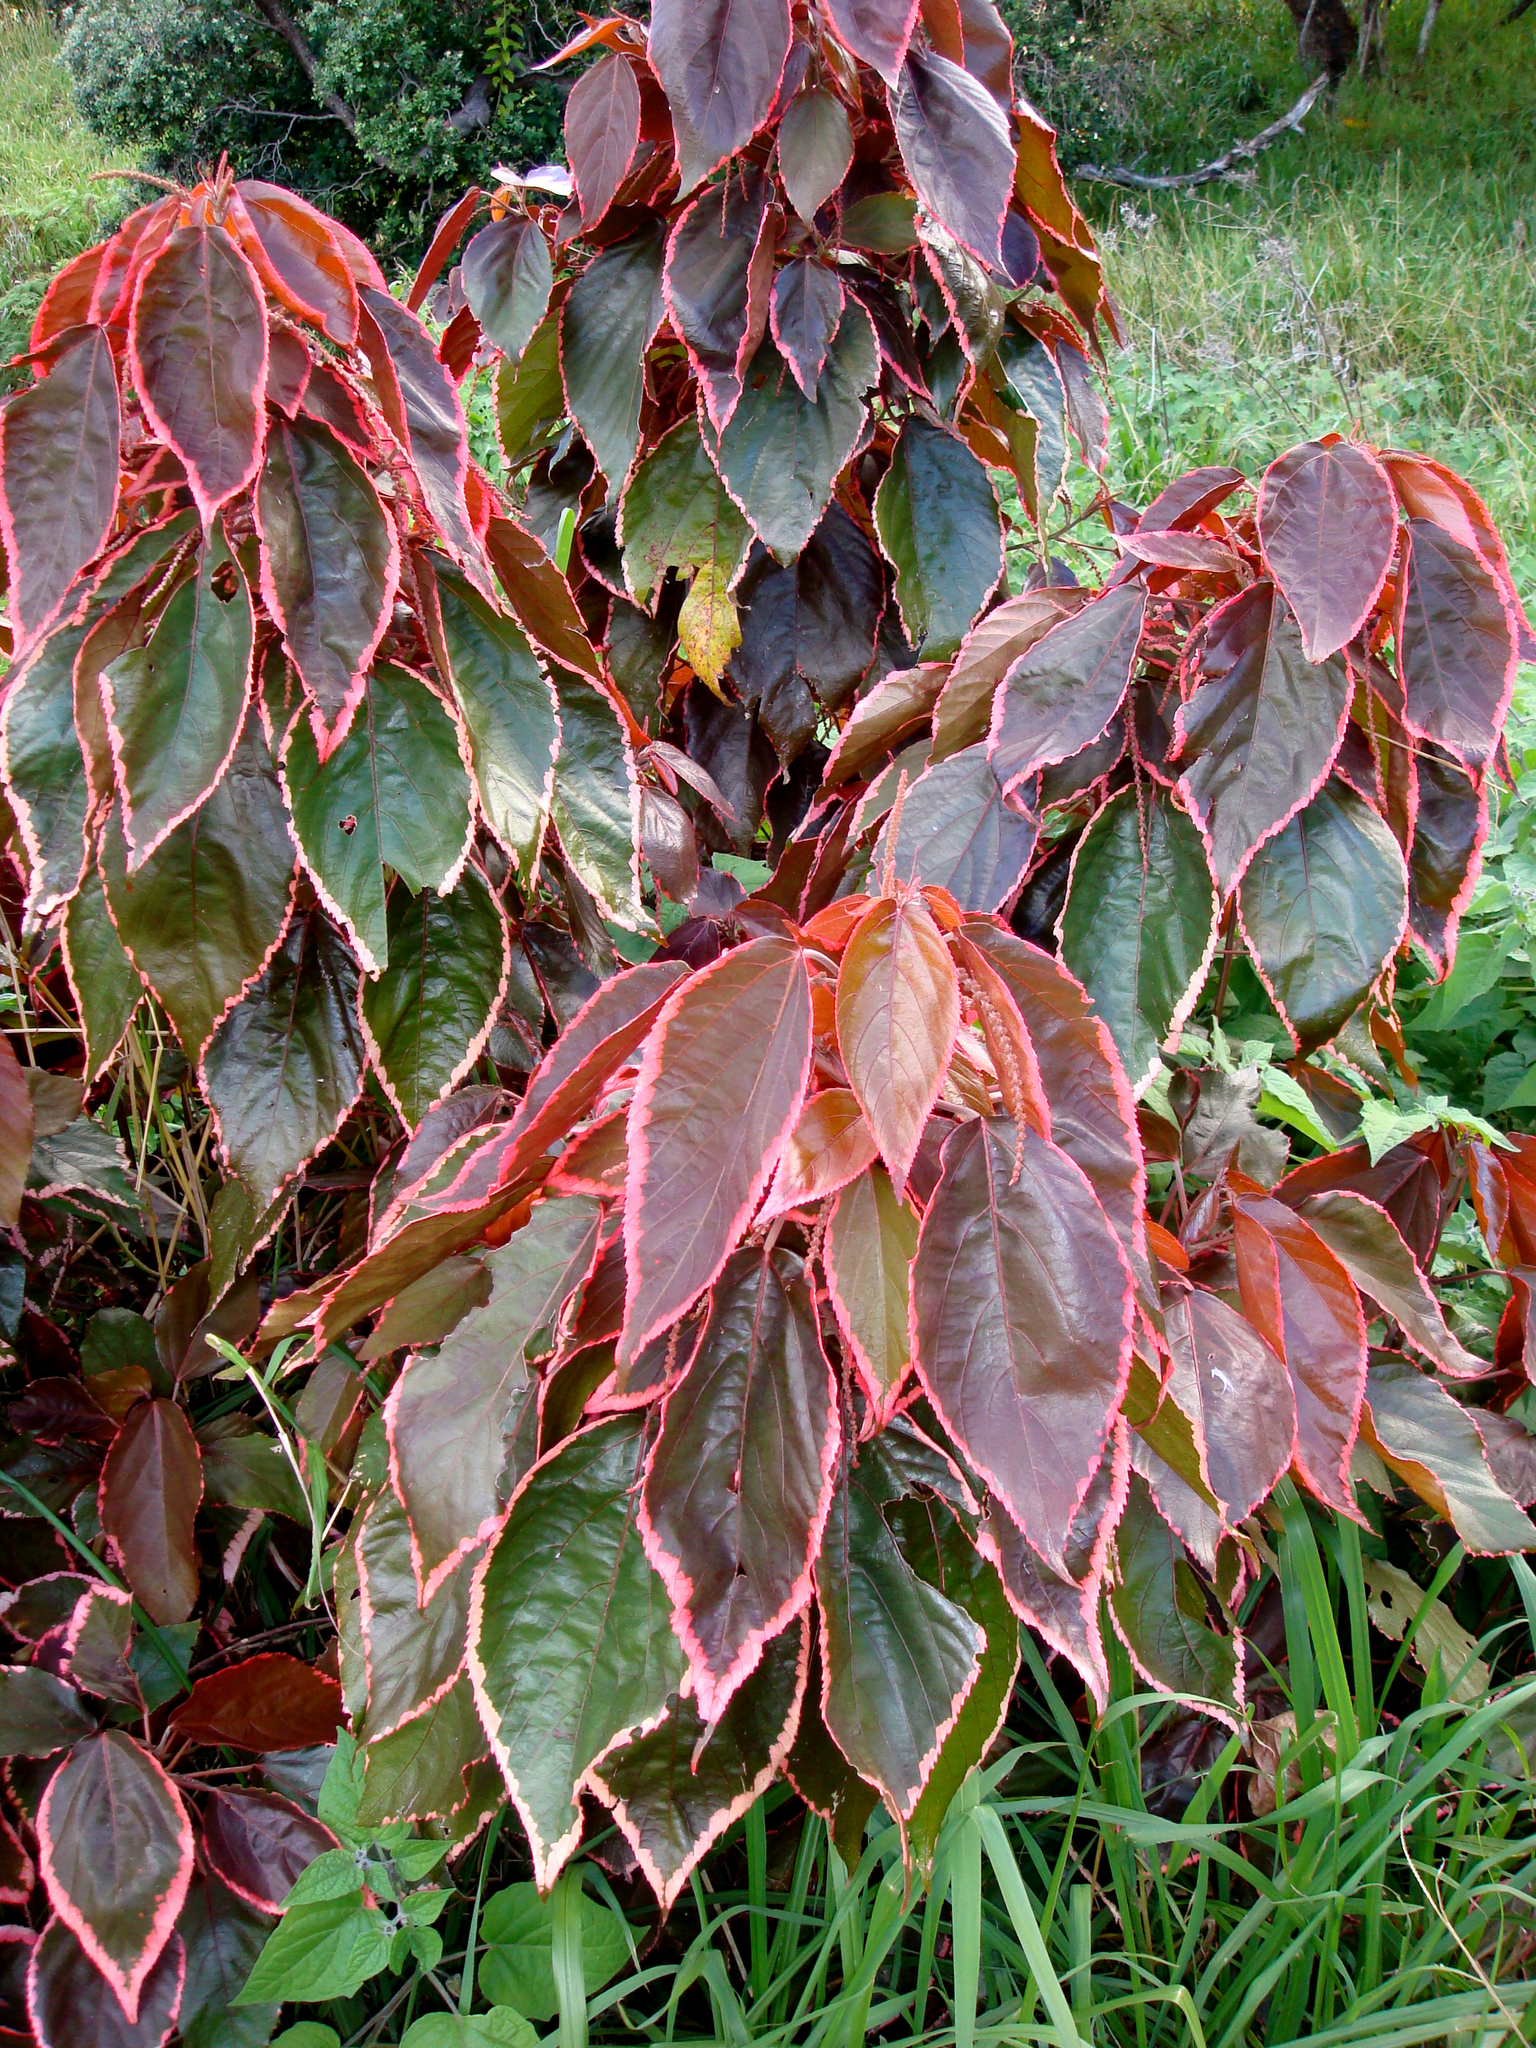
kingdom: Plantae
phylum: Tracheophyta
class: Magnoliopsida
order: Malpighiales
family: Euphorbiaceae
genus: Acalypha
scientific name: Acalypha wilkesiana
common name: Jacob's coat
